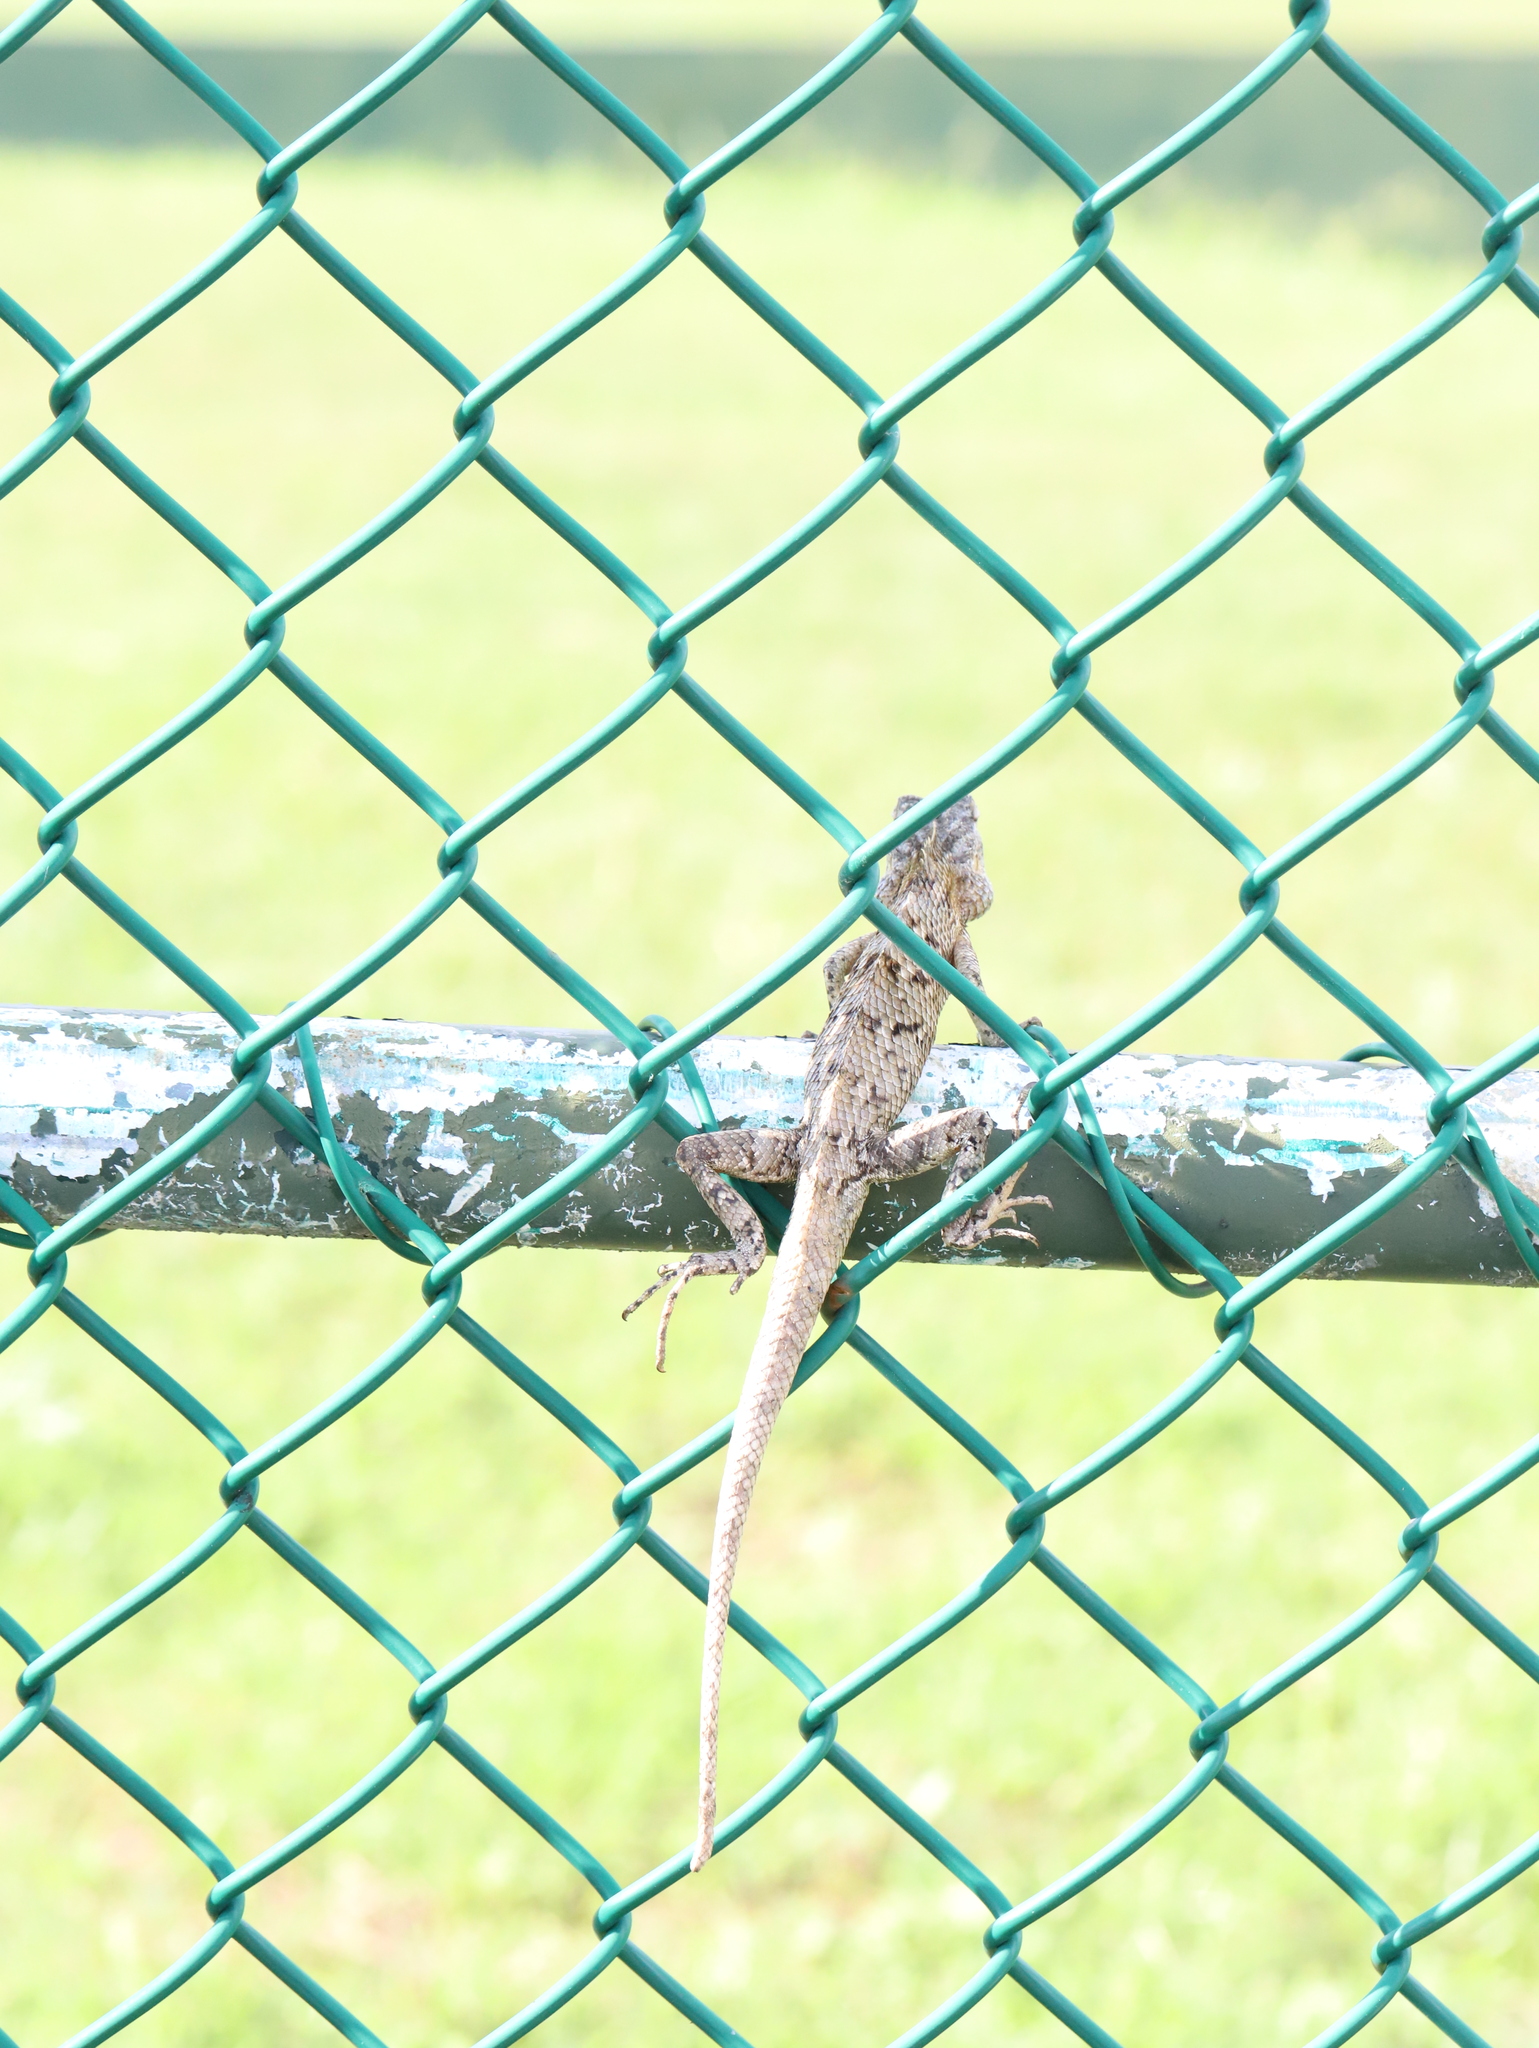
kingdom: Animalia
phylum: Chordata
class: Squamata
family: Agamidae
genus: Calotes
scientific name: Calotes versicolor
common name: Oriental garden lizard
